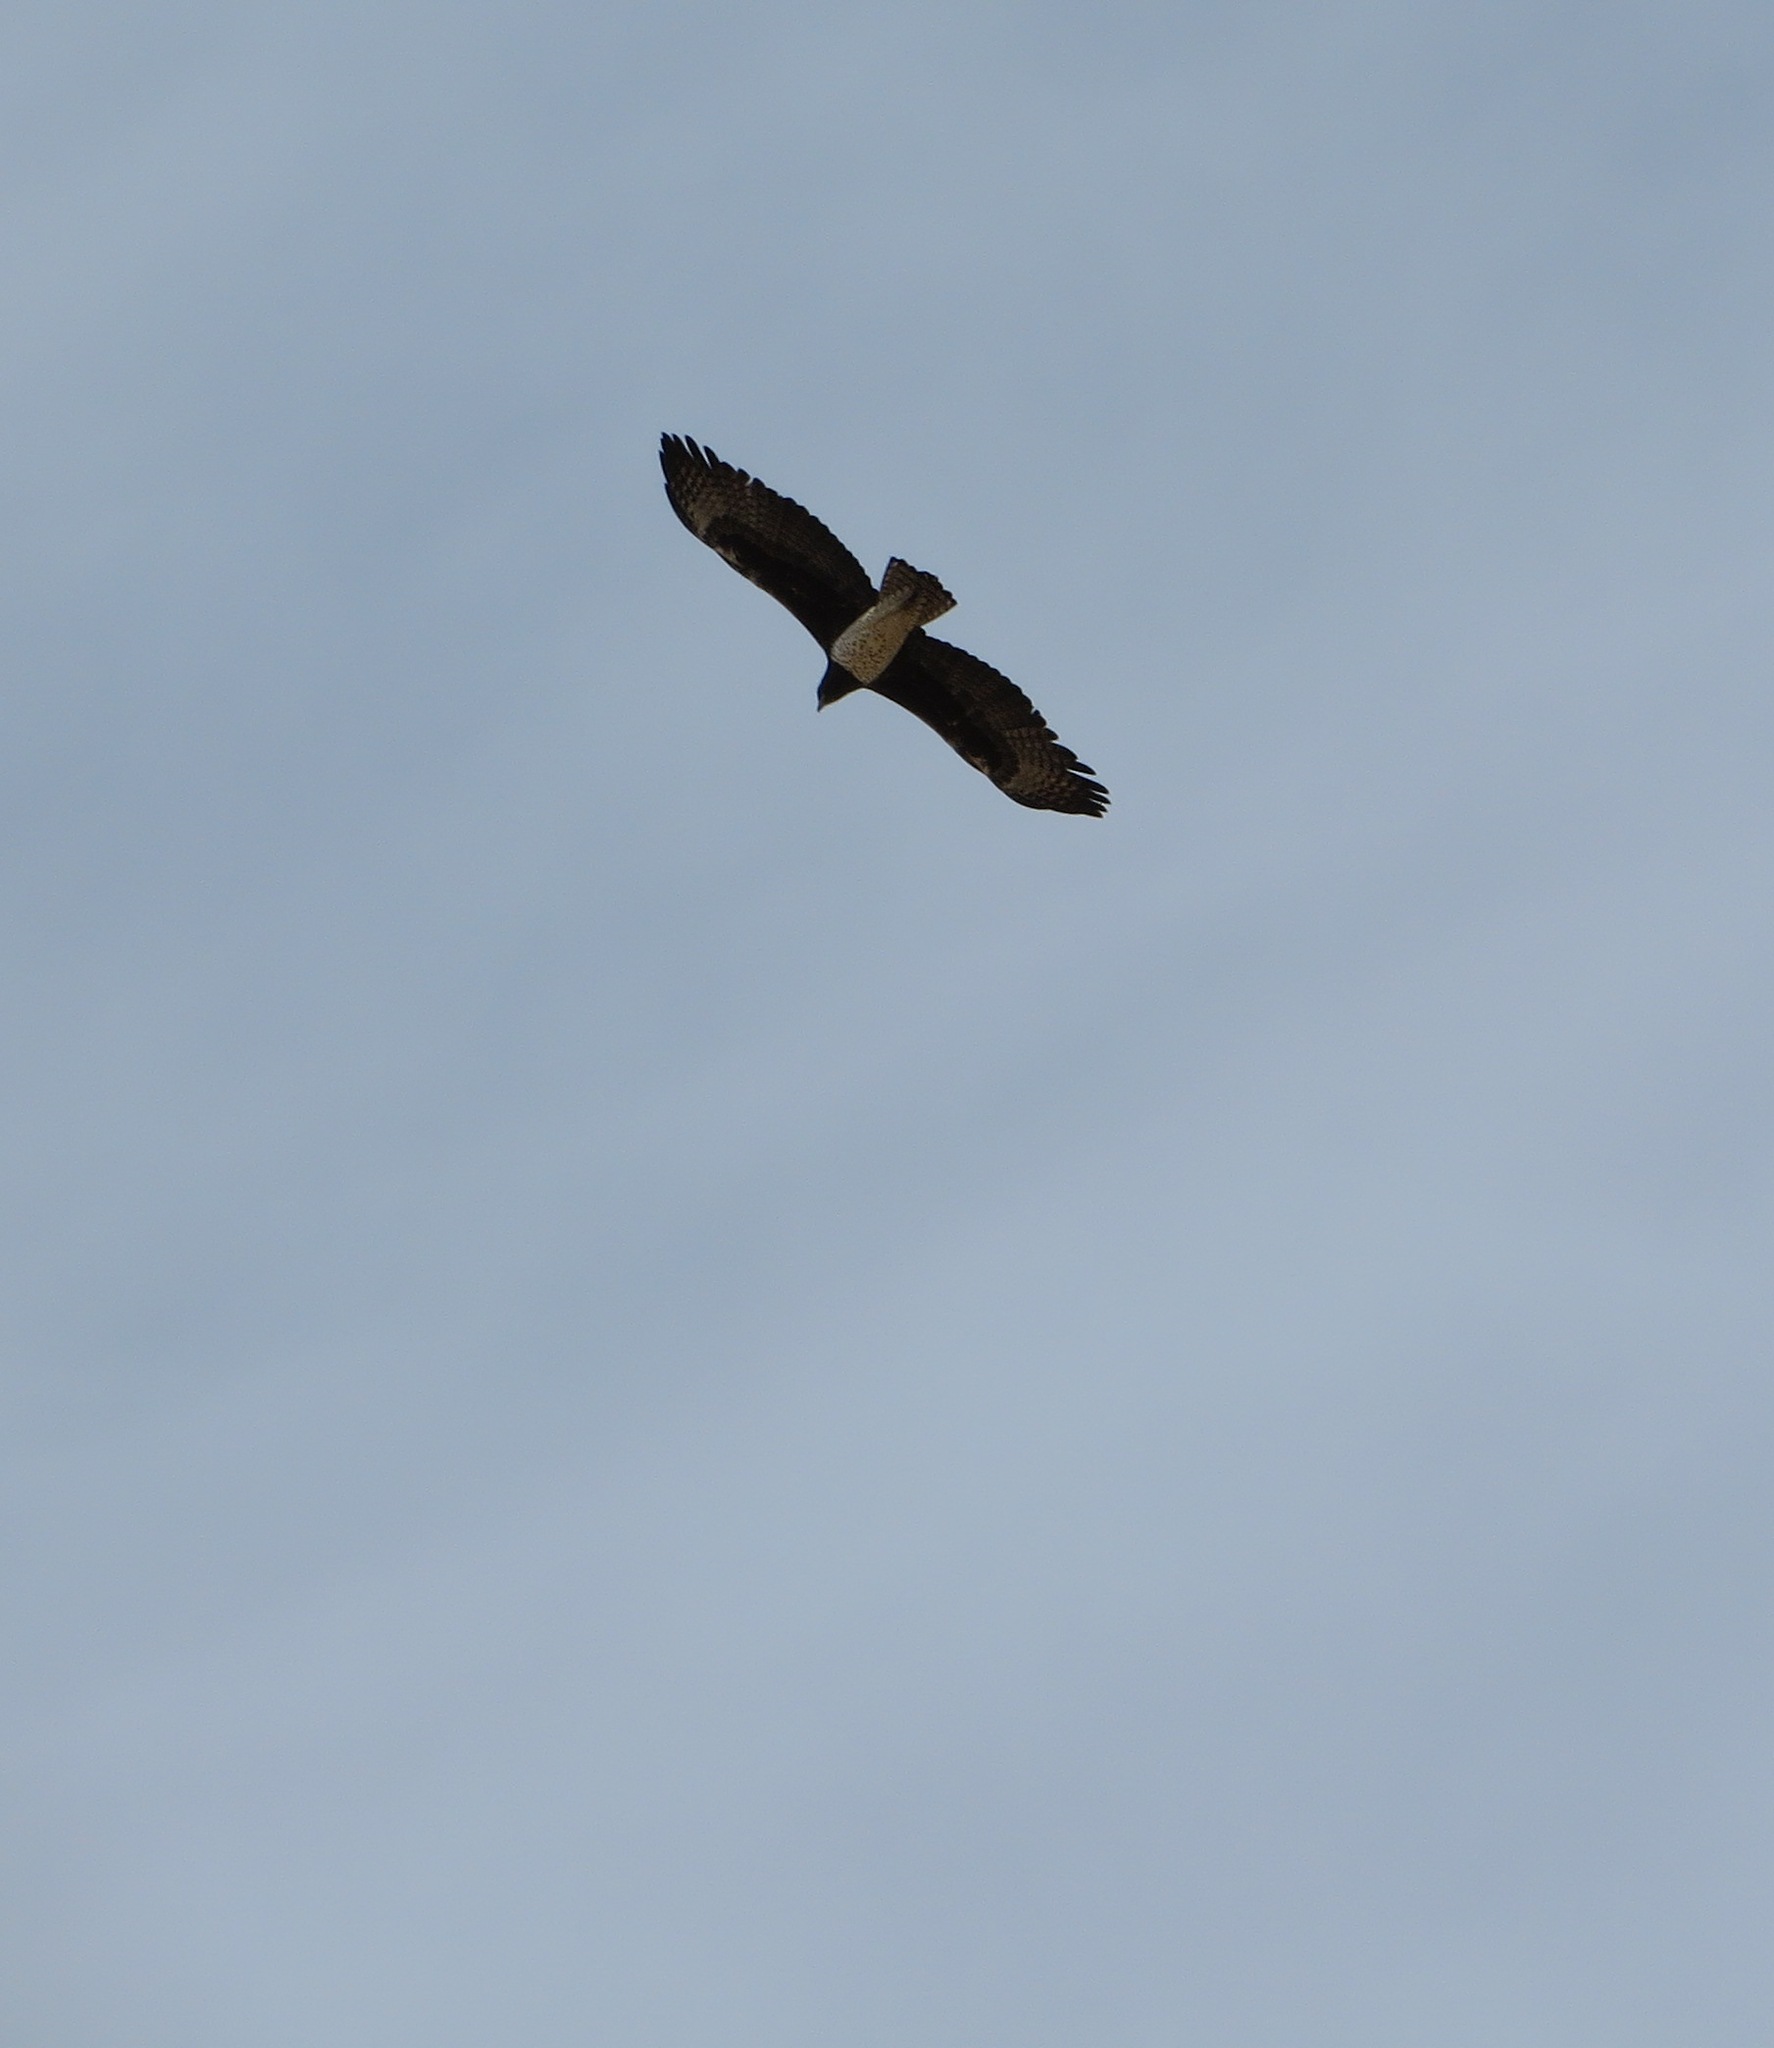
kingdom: Animalia
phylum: Chordata
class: Aves
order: Accipitriformes
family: Accipitridae
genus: Polemaetus
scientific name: Polemaetus bellicosus
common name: Martial eagle
